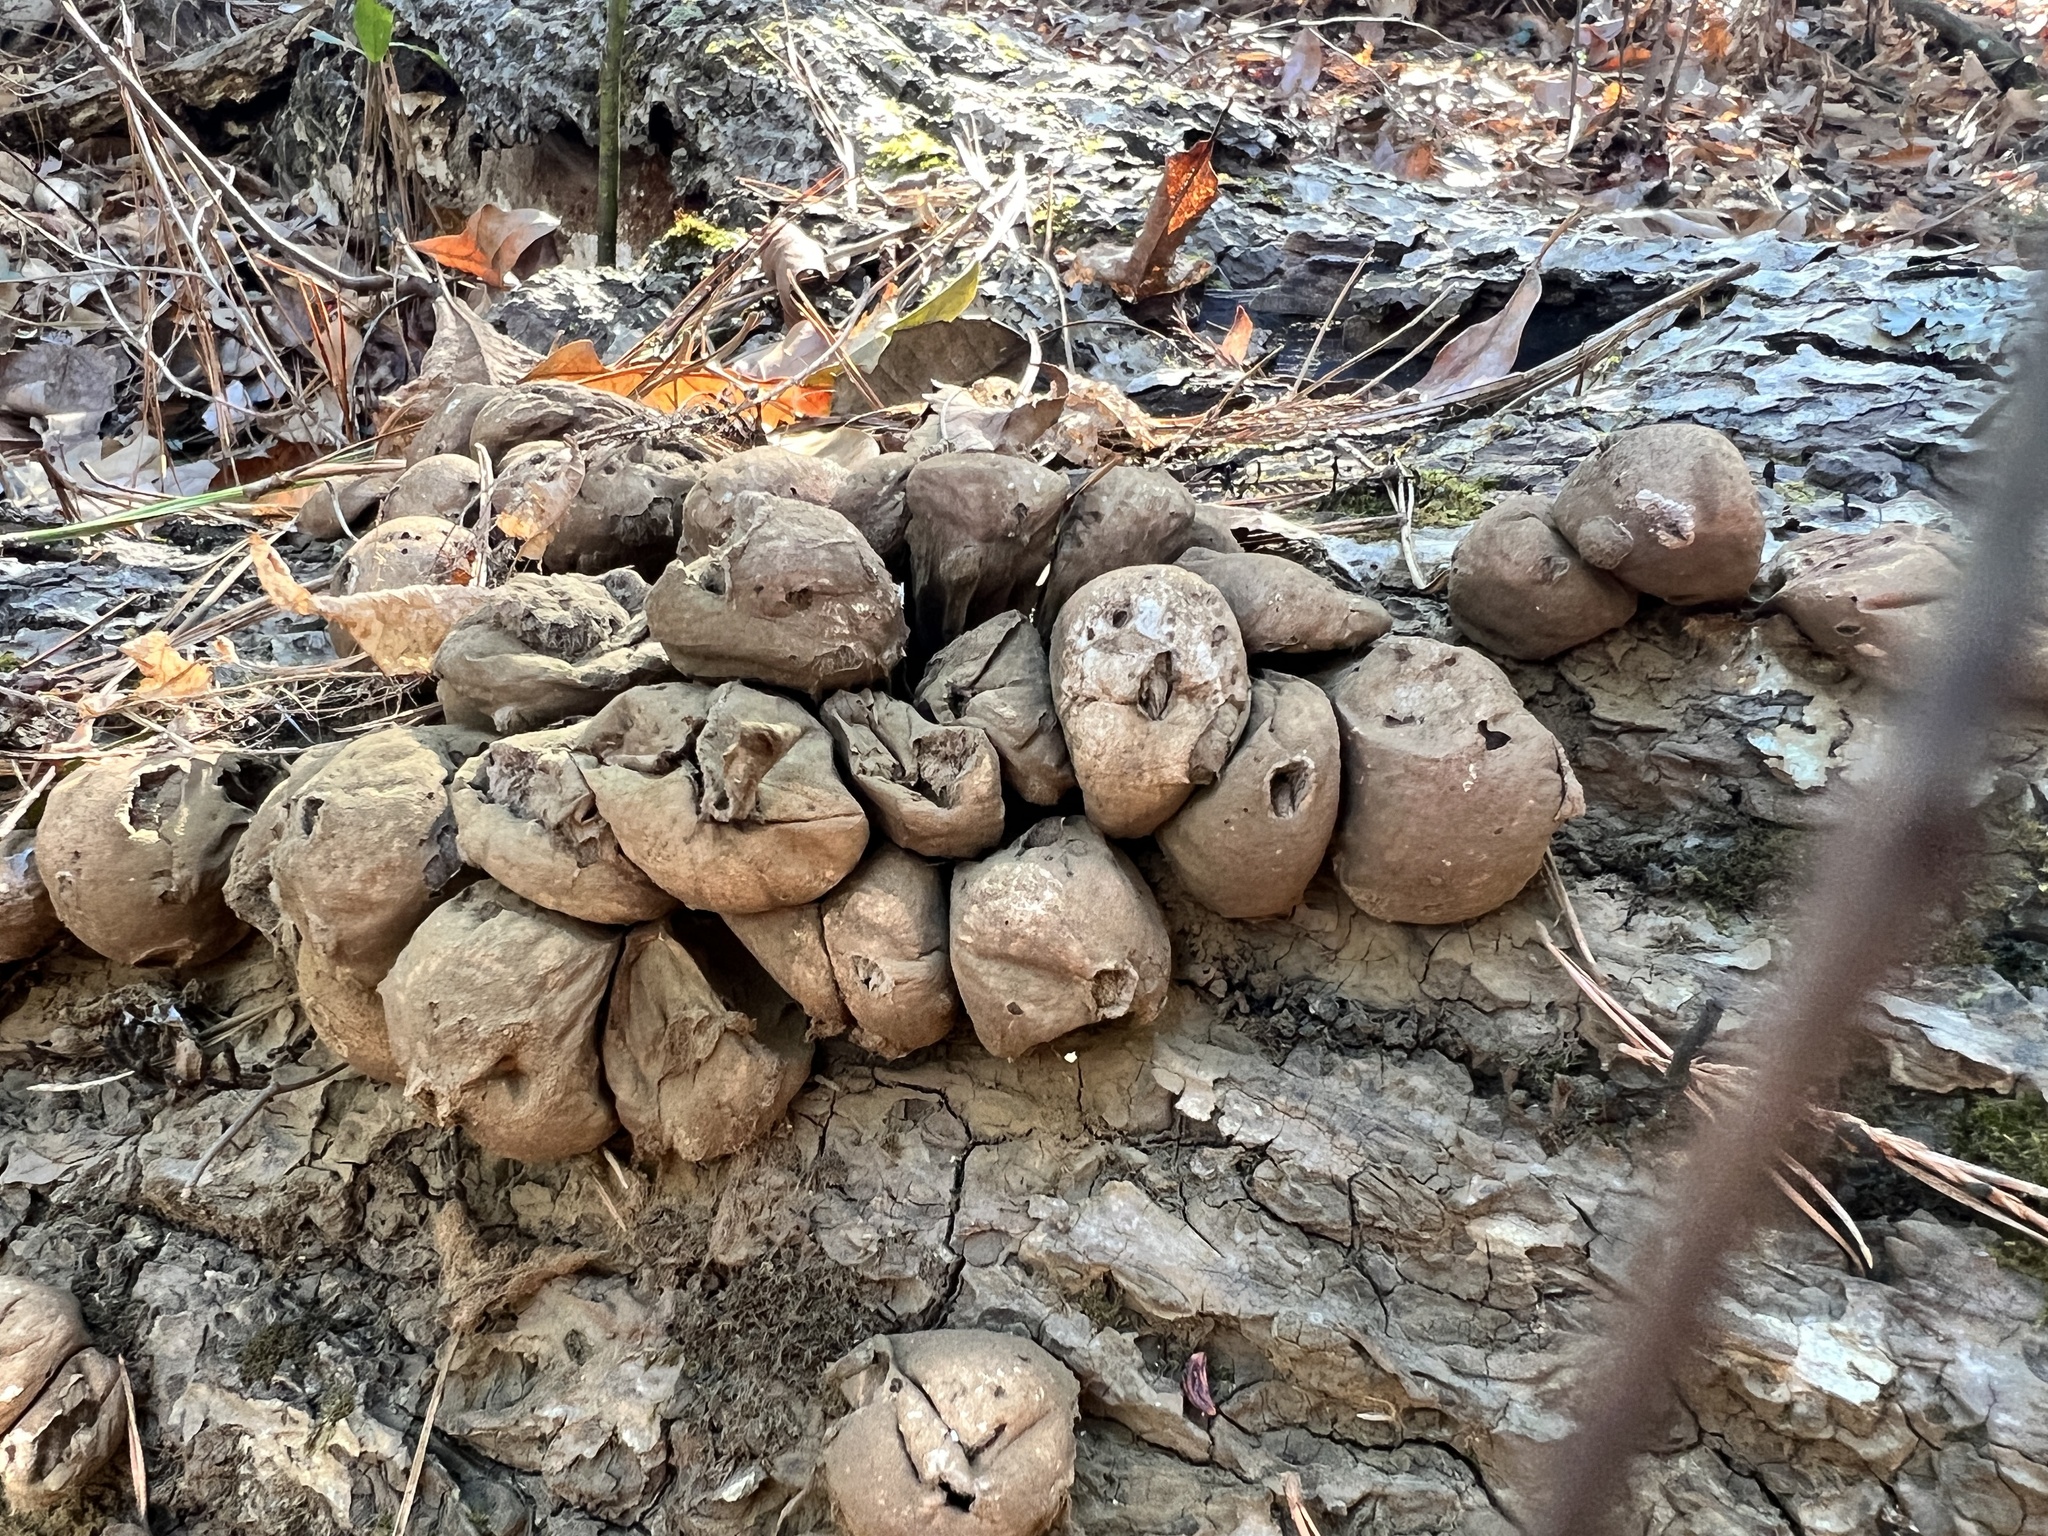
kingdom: Fungi
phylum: Basidiomycota
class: Agaricomycetes
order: Agaricales
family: Lycoperdaceae
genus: Apioperdon
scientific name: Apioperdon pyriforme
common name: Pear-shaped puffball
